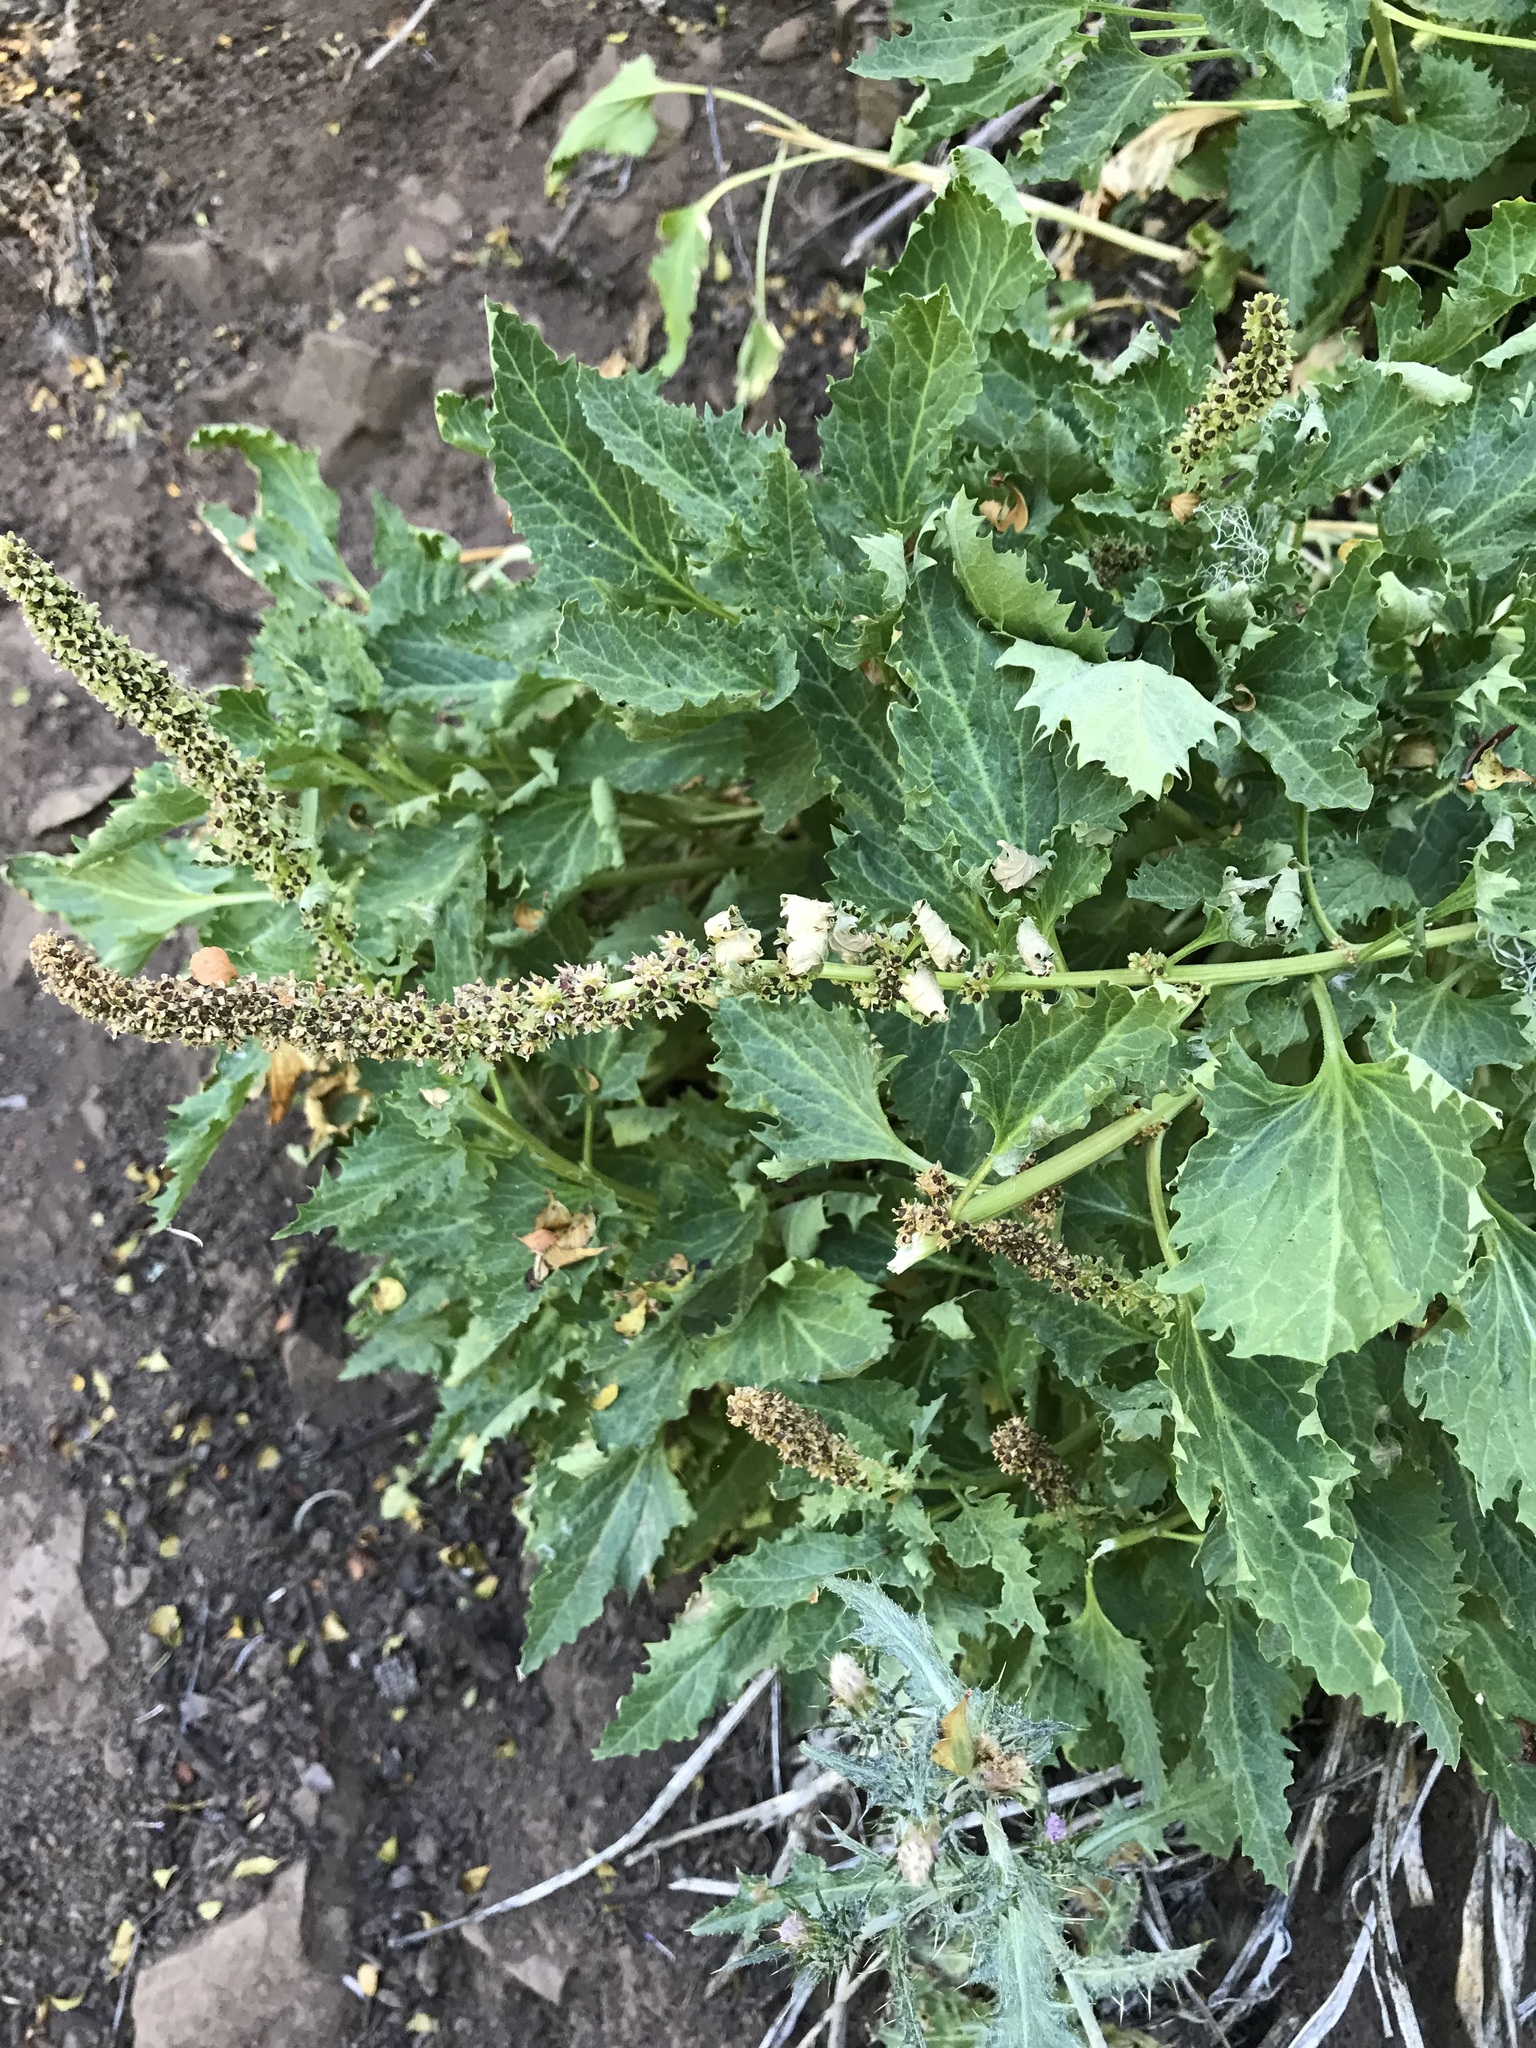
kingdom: Plantae
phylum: Tracheophyta
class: Magnoliopsida
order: Caryophyllales
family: Amaranthaceae
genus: Blitum
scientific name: Blitum californicum
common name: California goosefoot
